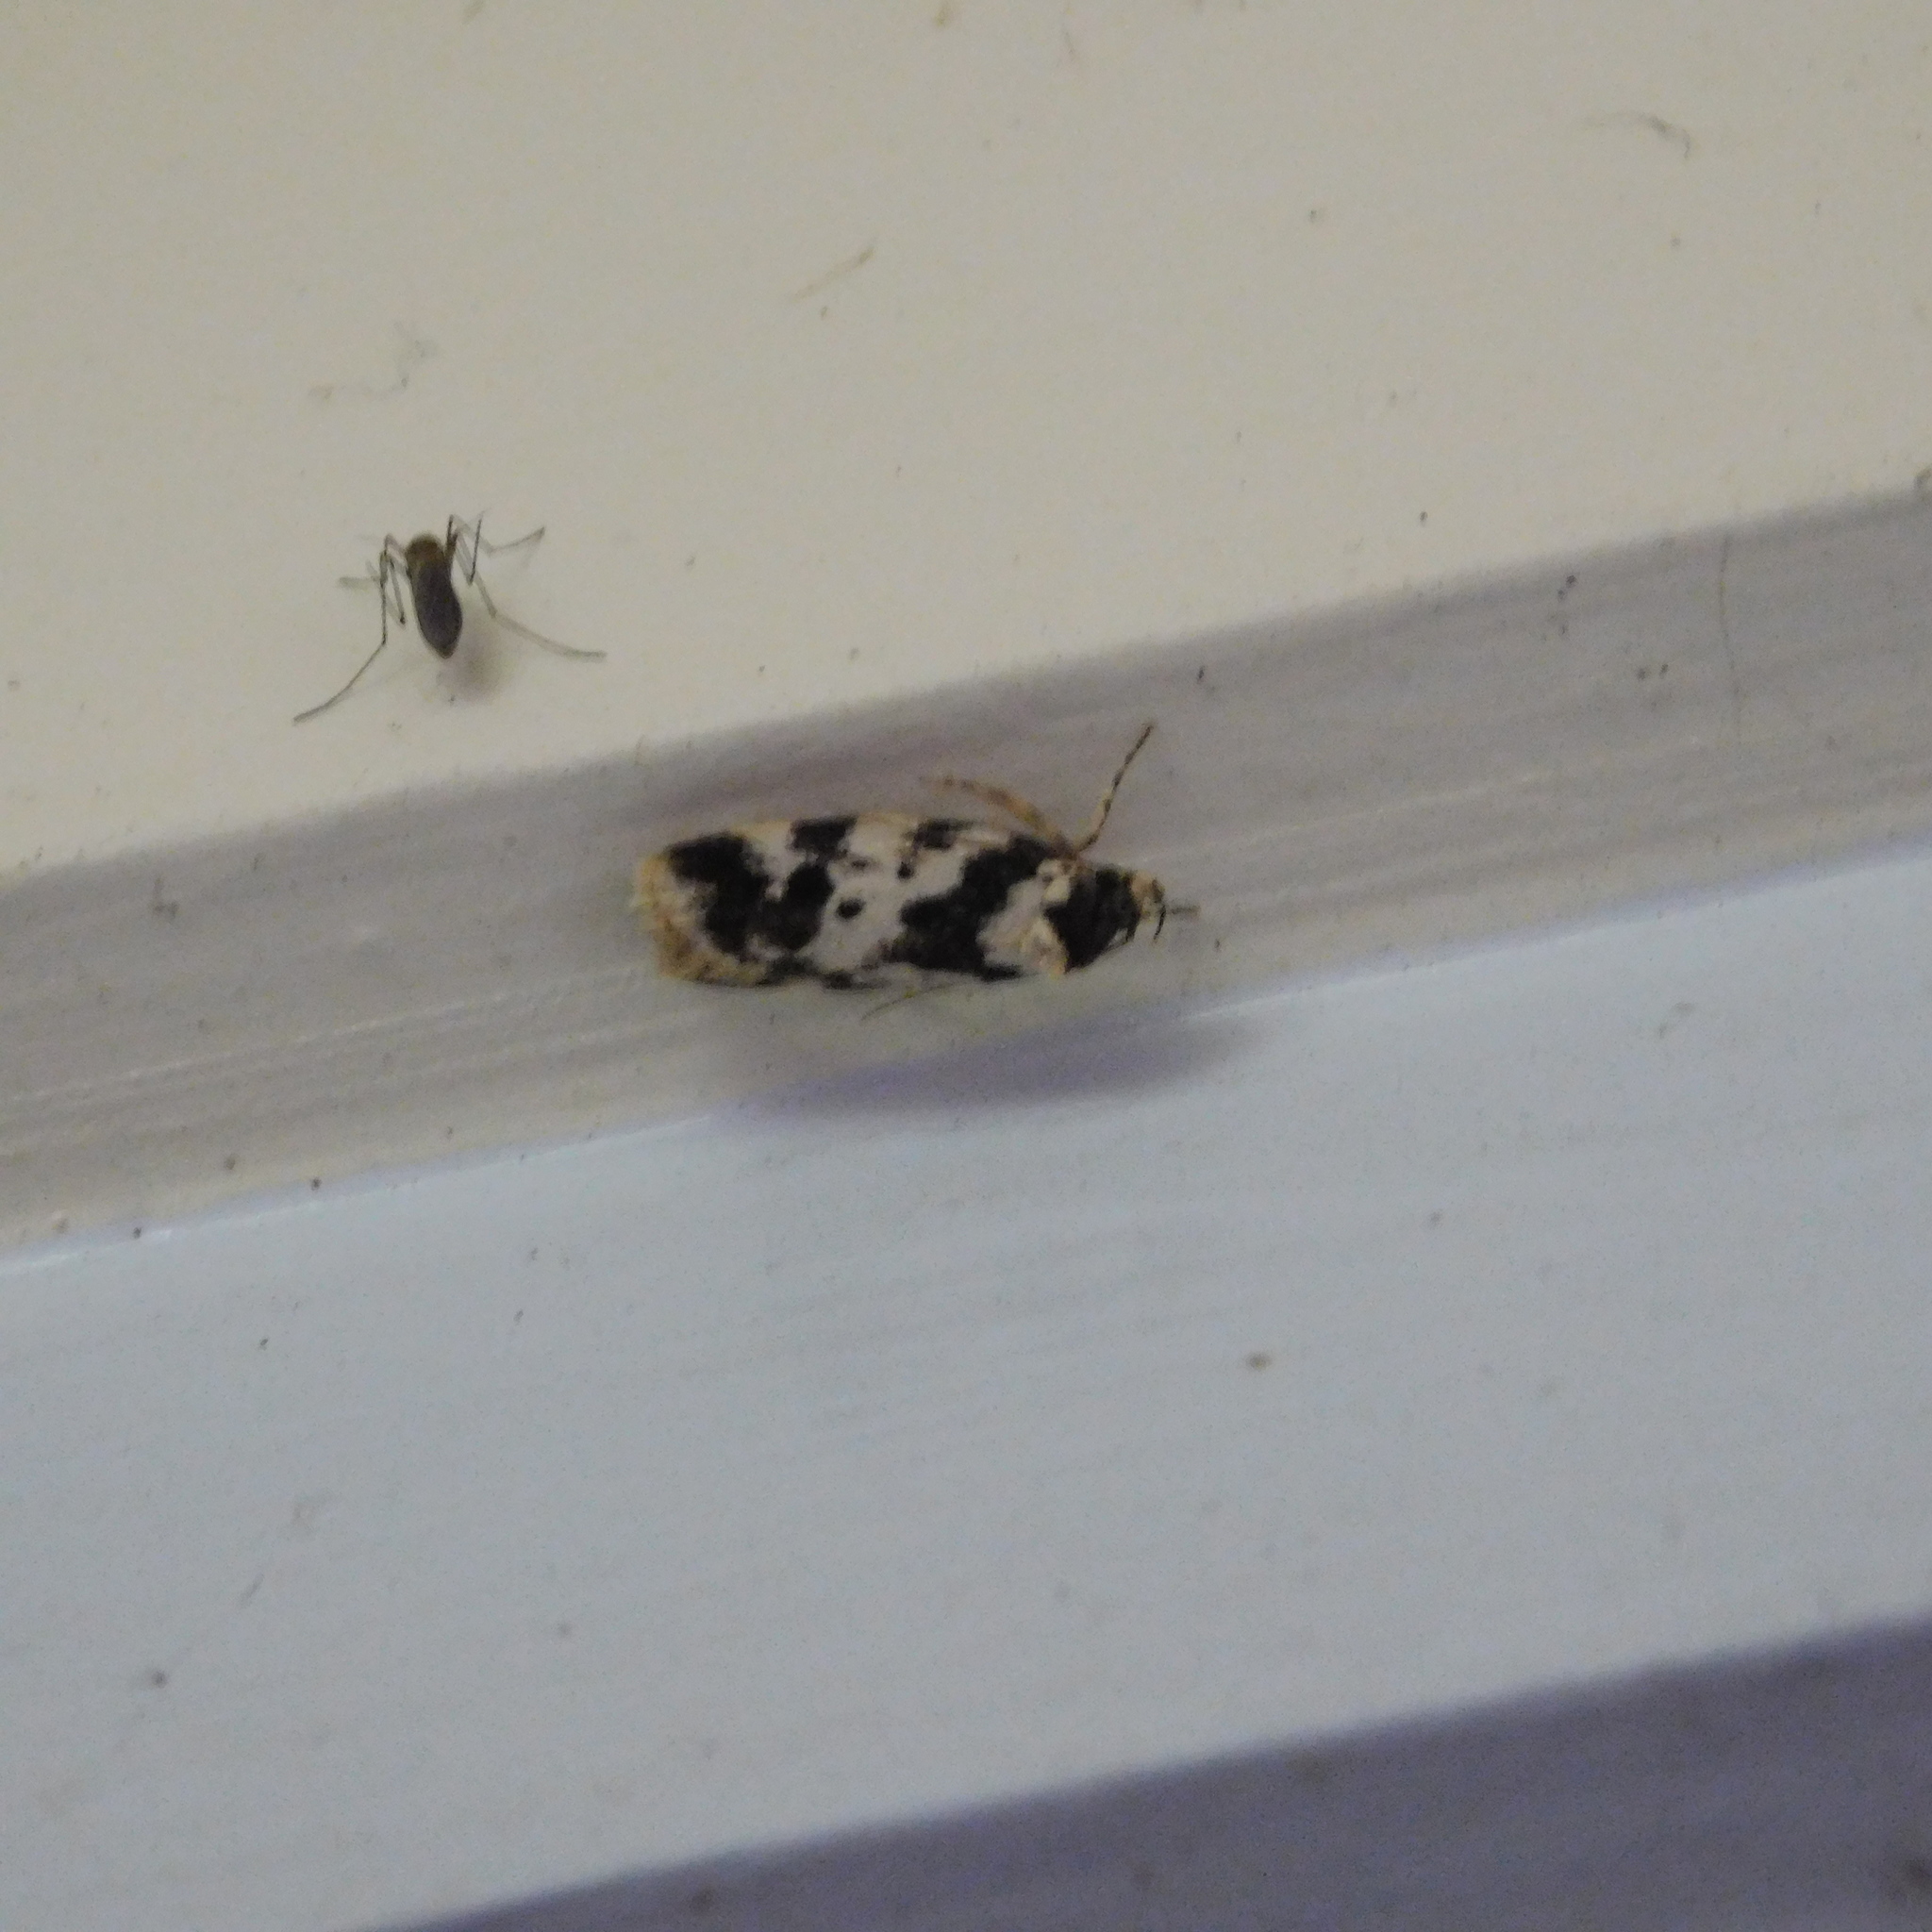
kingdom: Animalia
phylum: Arthropoda
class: Insecta
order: Lepidoptera
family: Oecophoridae
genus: Barea
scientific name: Barea confusella
